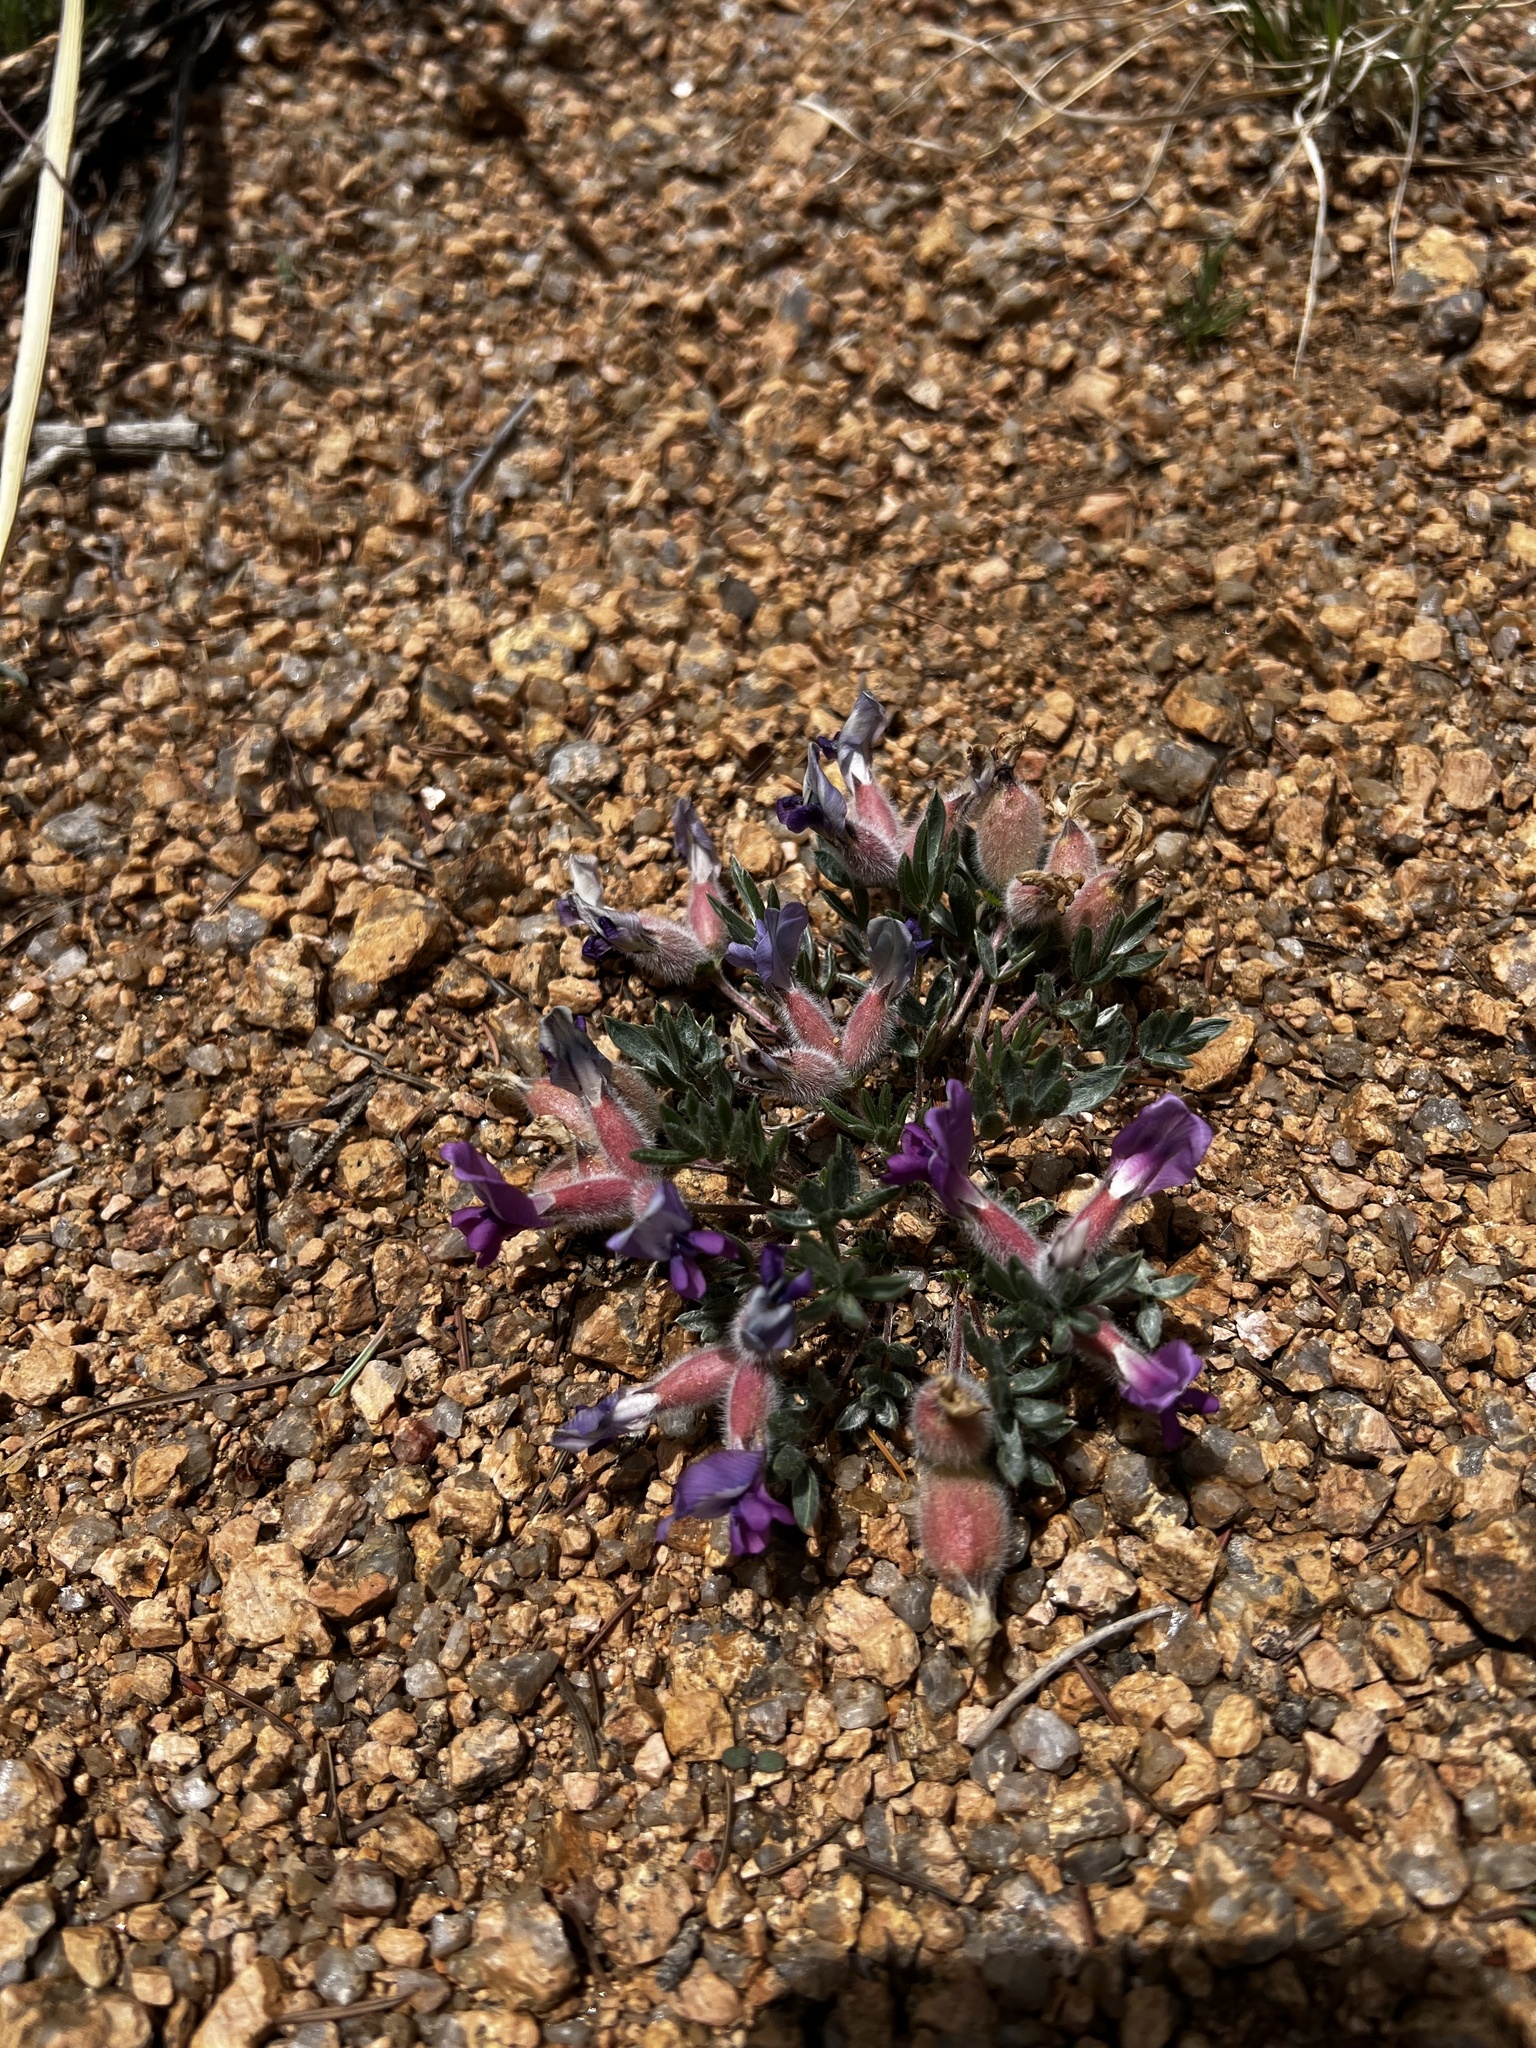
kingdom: Plantae
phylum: Tracheophyta
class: Magnoliopsida
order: Fabales
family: Fabaceae
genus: Oxytropis
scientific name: Oxytropis multiceps
